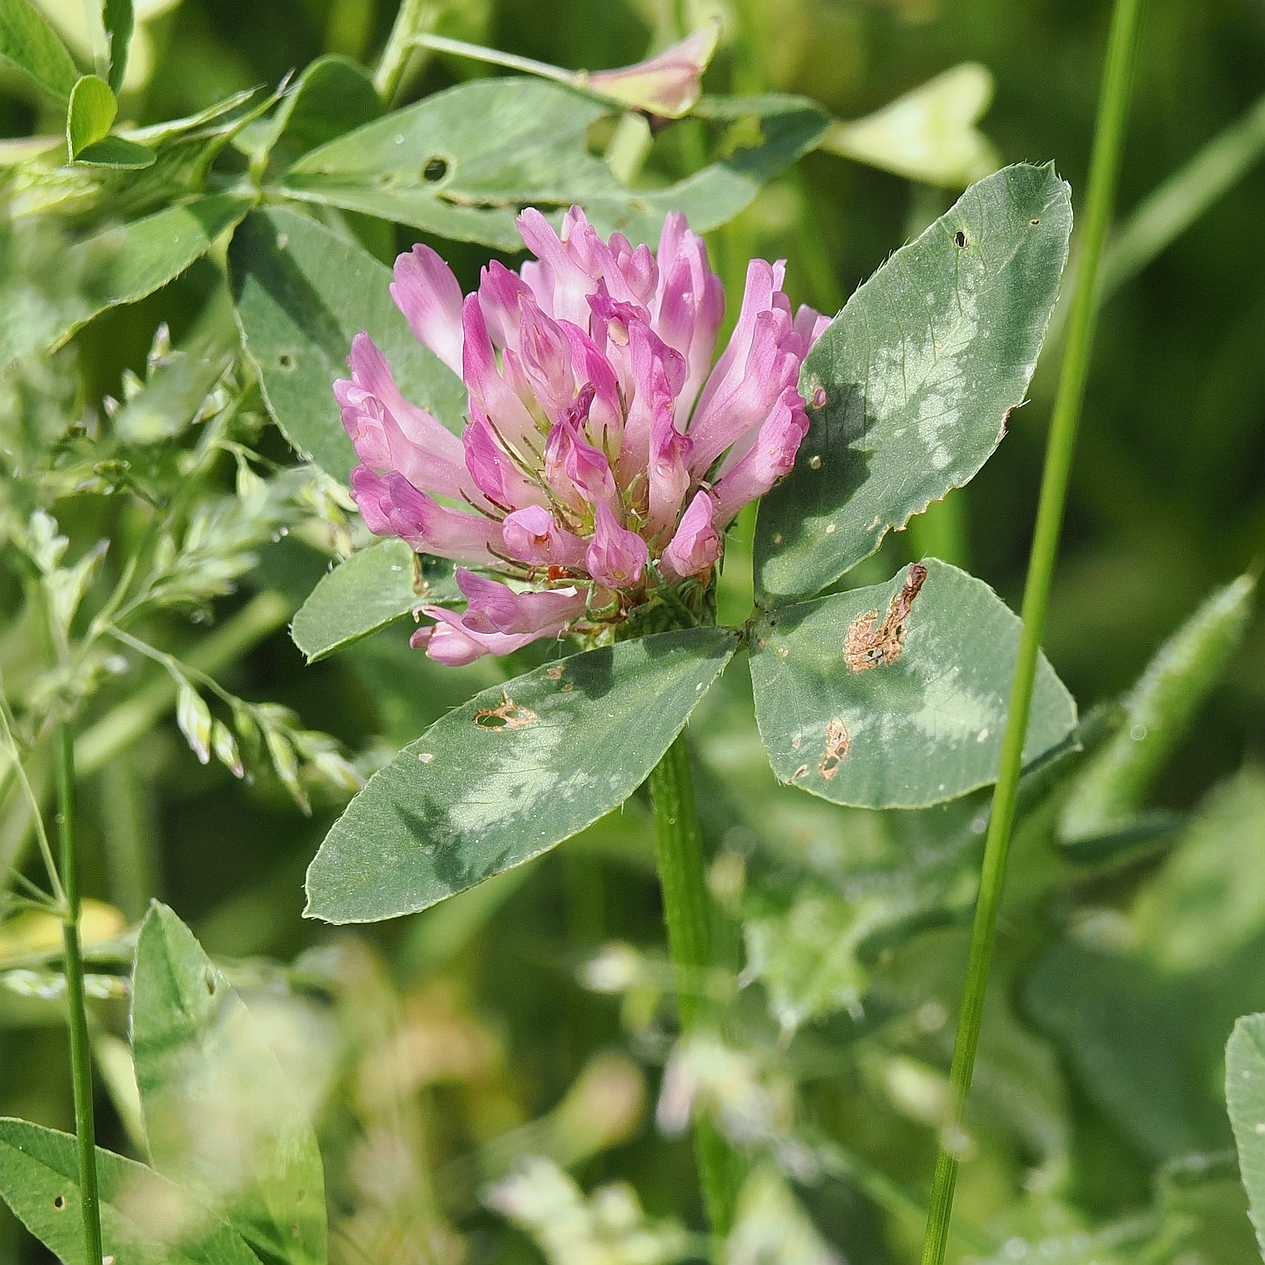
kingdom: Plantae
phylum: Tracheophyta
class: Magnoliopsida
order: Fabales
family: Fabaceae
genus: Trifolium
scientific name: Trifolium pratense
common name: Red clover
